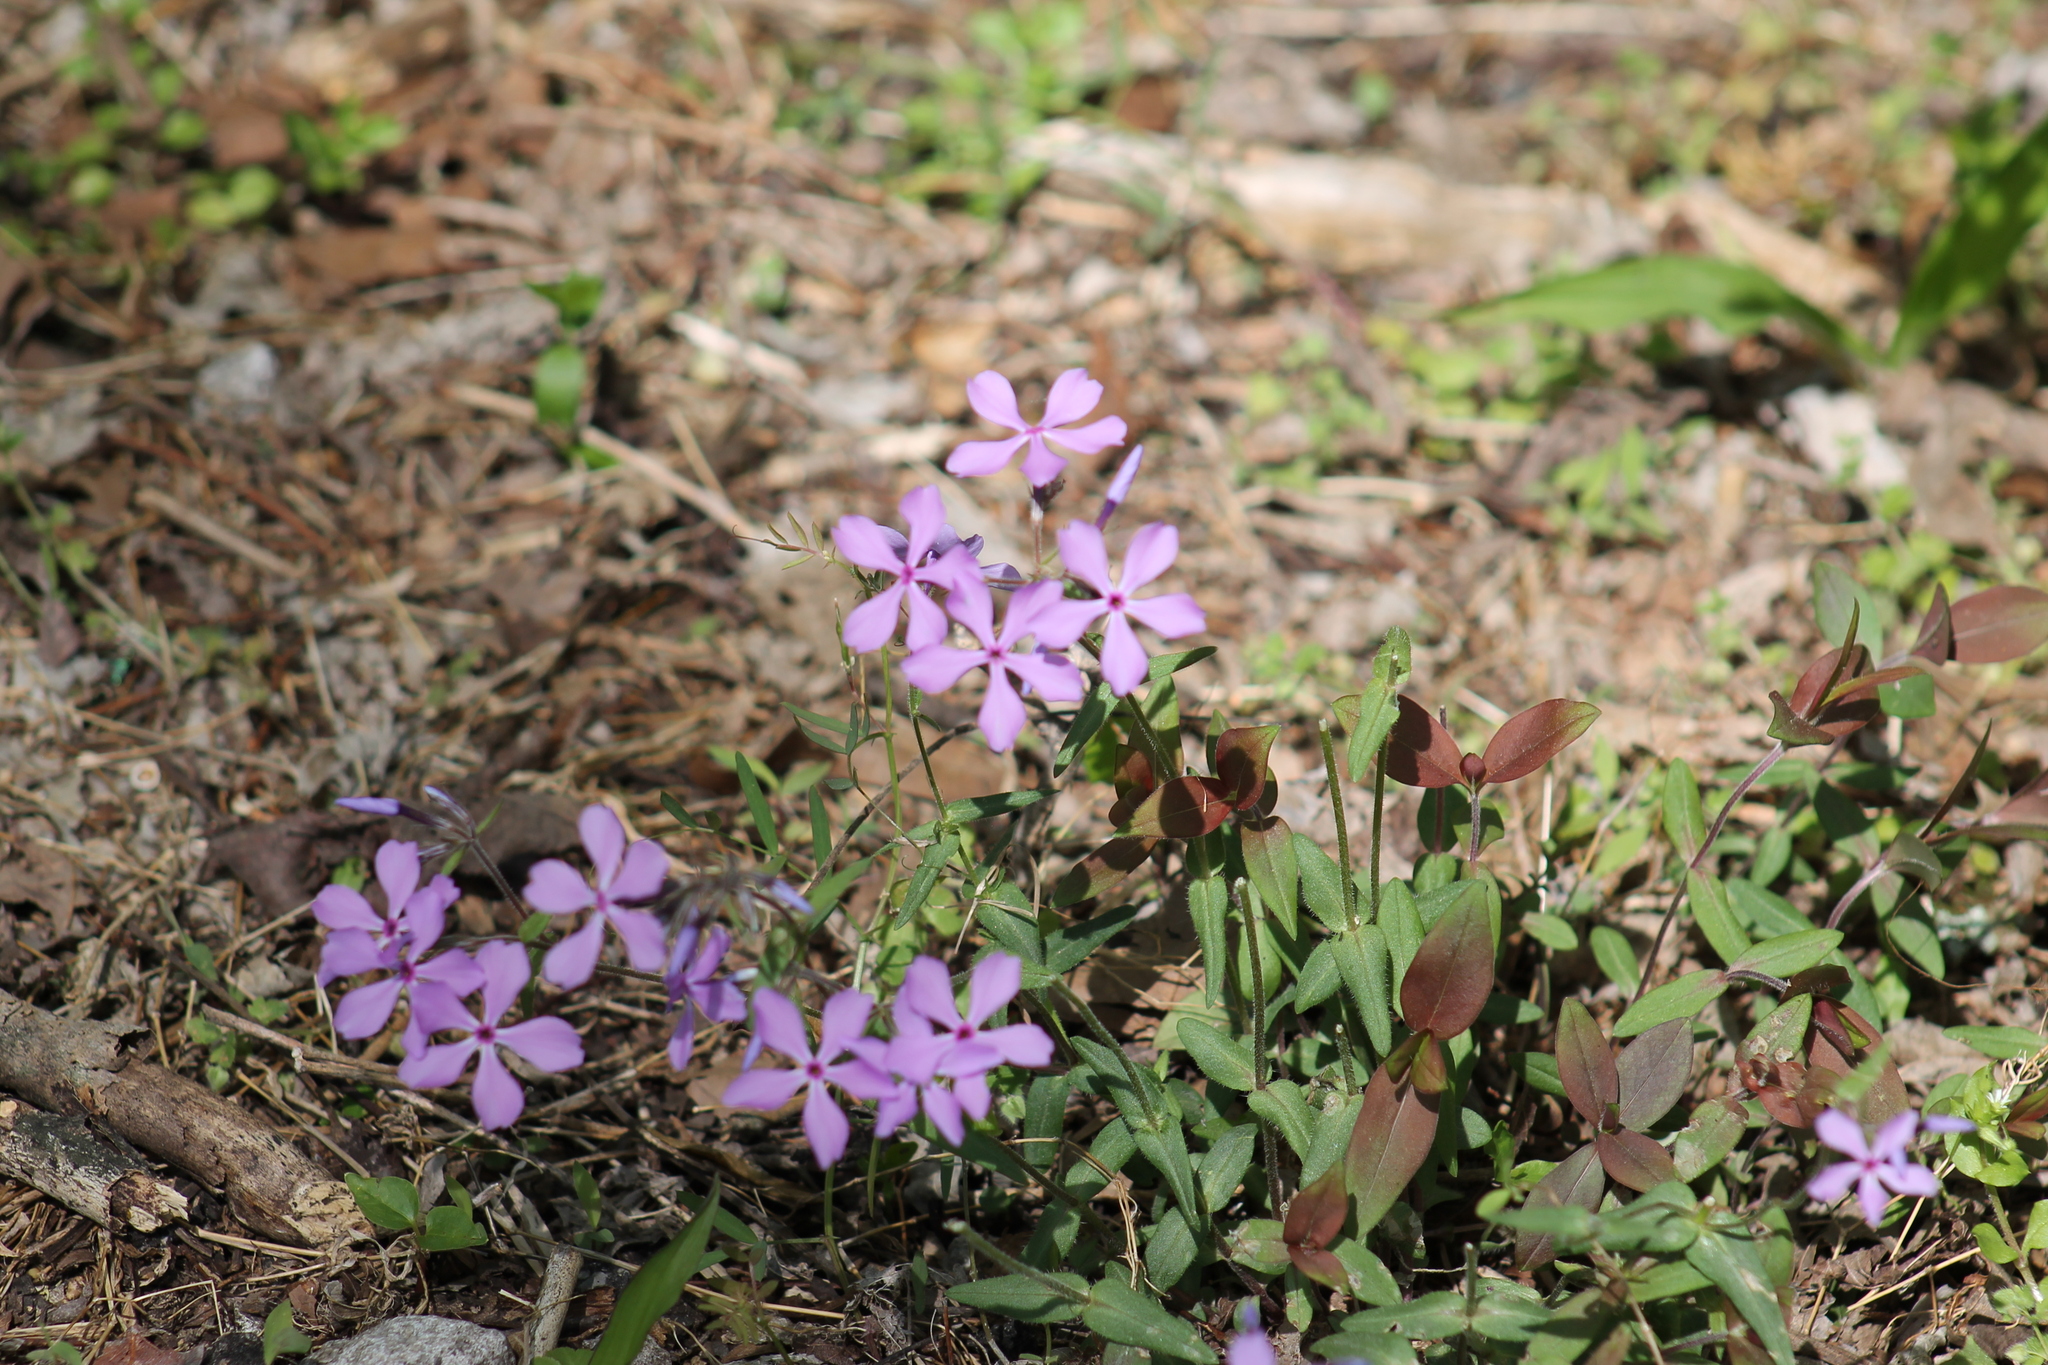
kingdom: Plantae
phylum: Tracheophyta
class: Magnoliopsida
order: Ericales
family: Polemoniaceae
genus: Phlox
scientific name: Phlox divaricata
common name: Blue phlox
